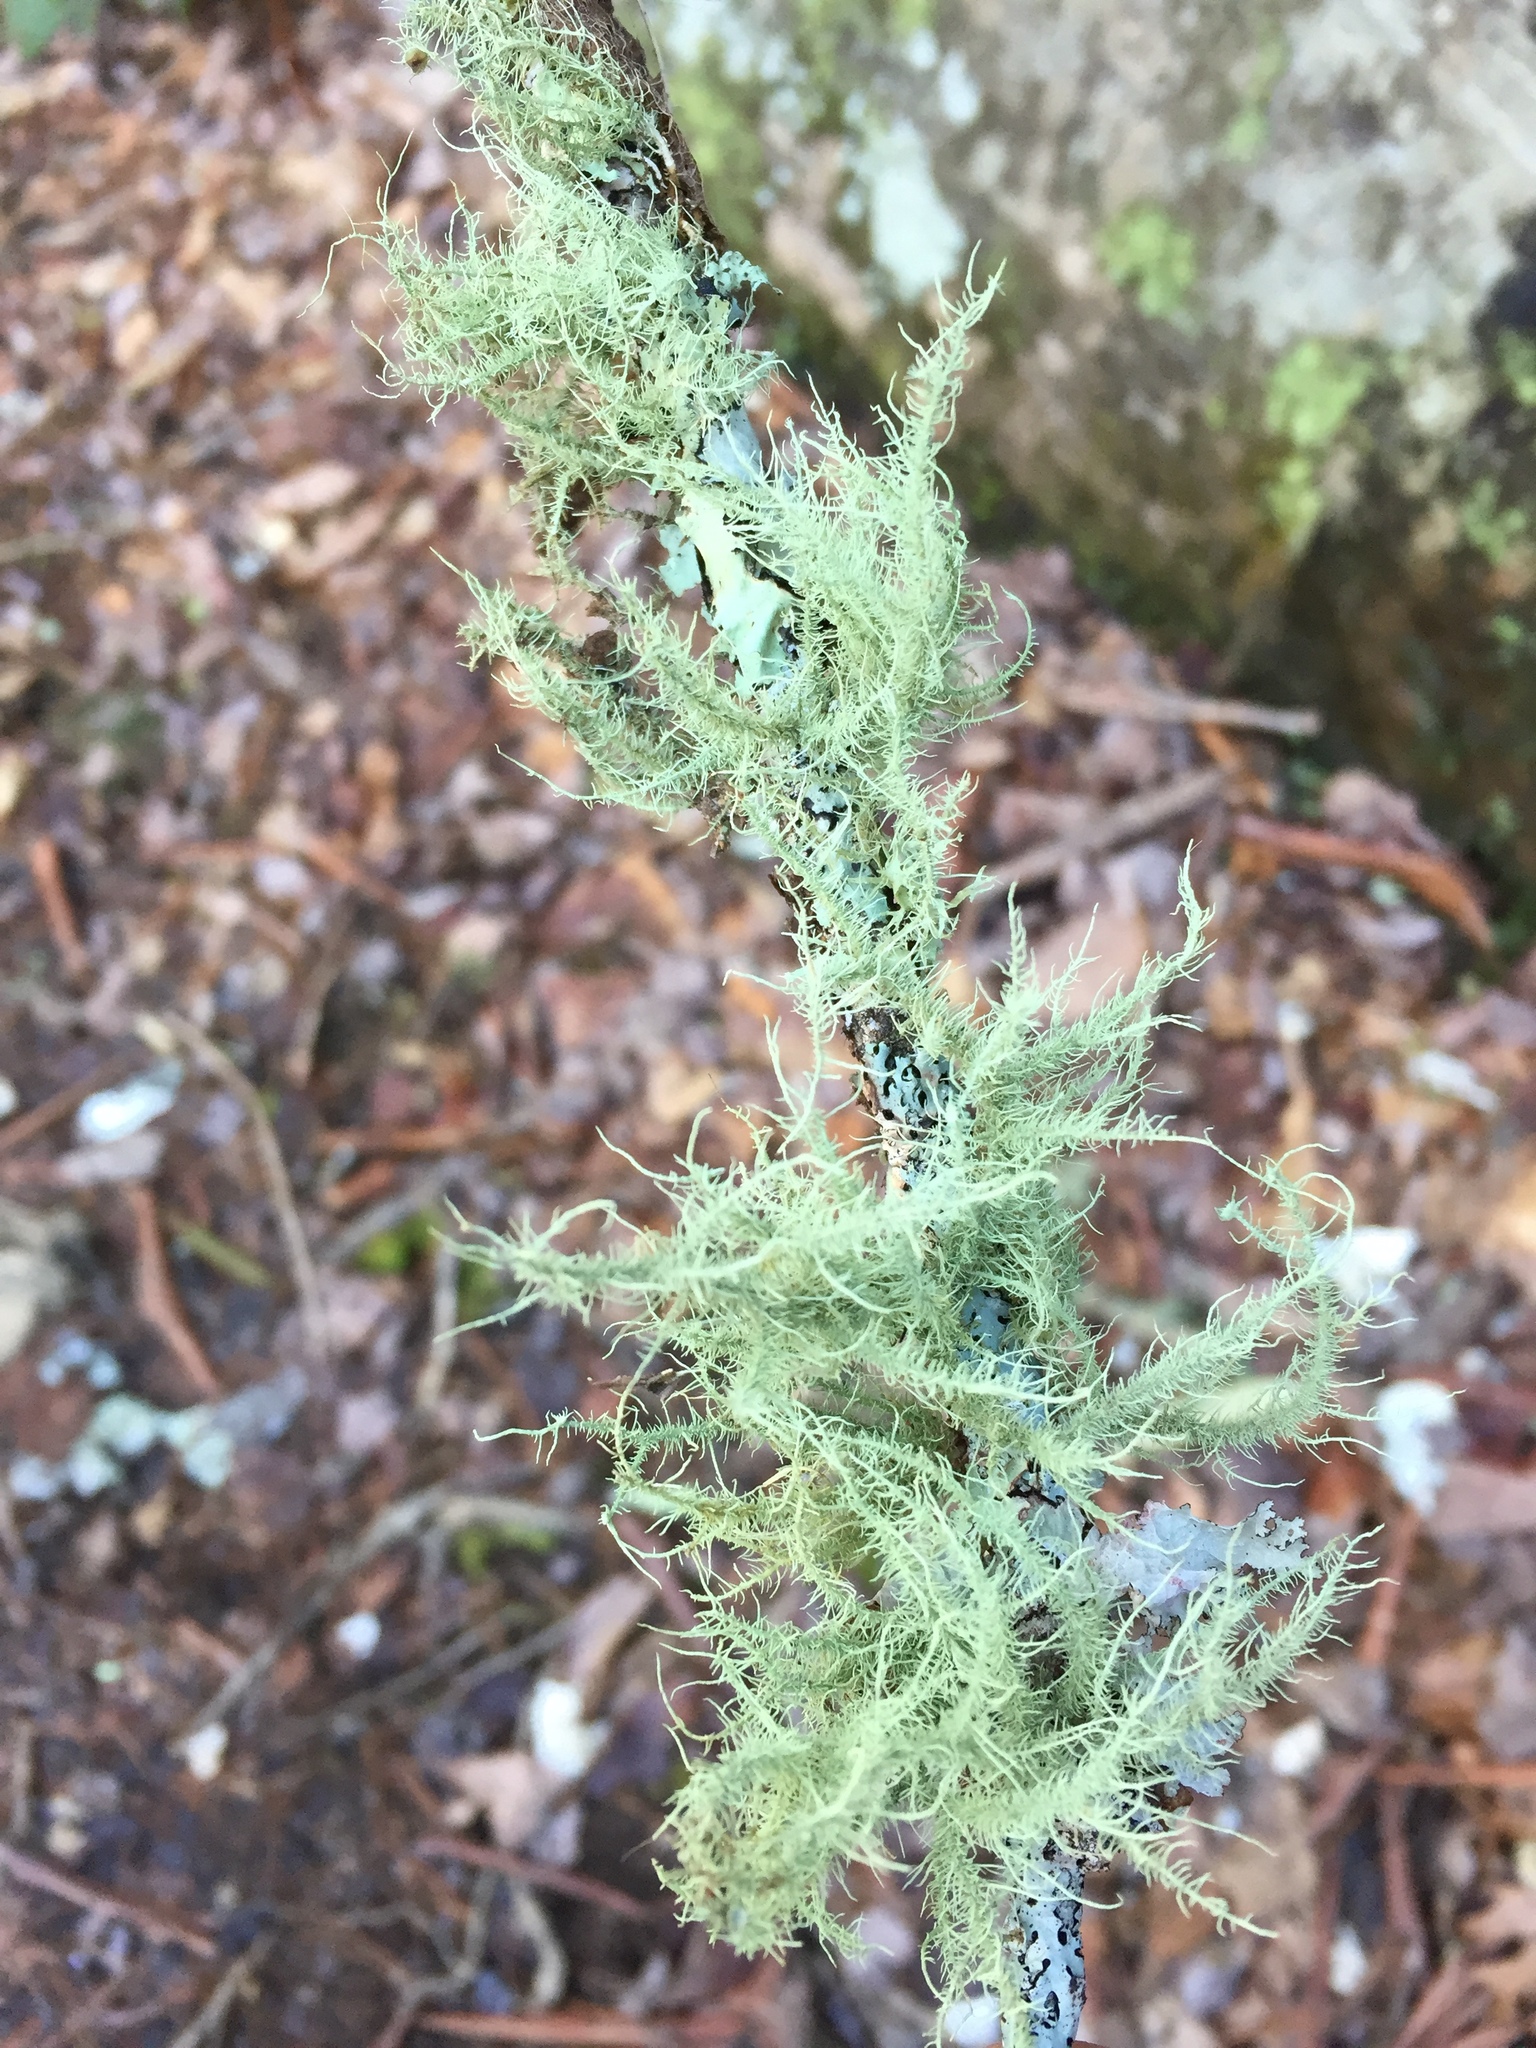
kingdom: Fungi
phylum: Ascomycota
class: Lecanoromycetes
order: Lecanorales
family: Parmeliaceae
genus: Usnea
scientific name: Usnea
